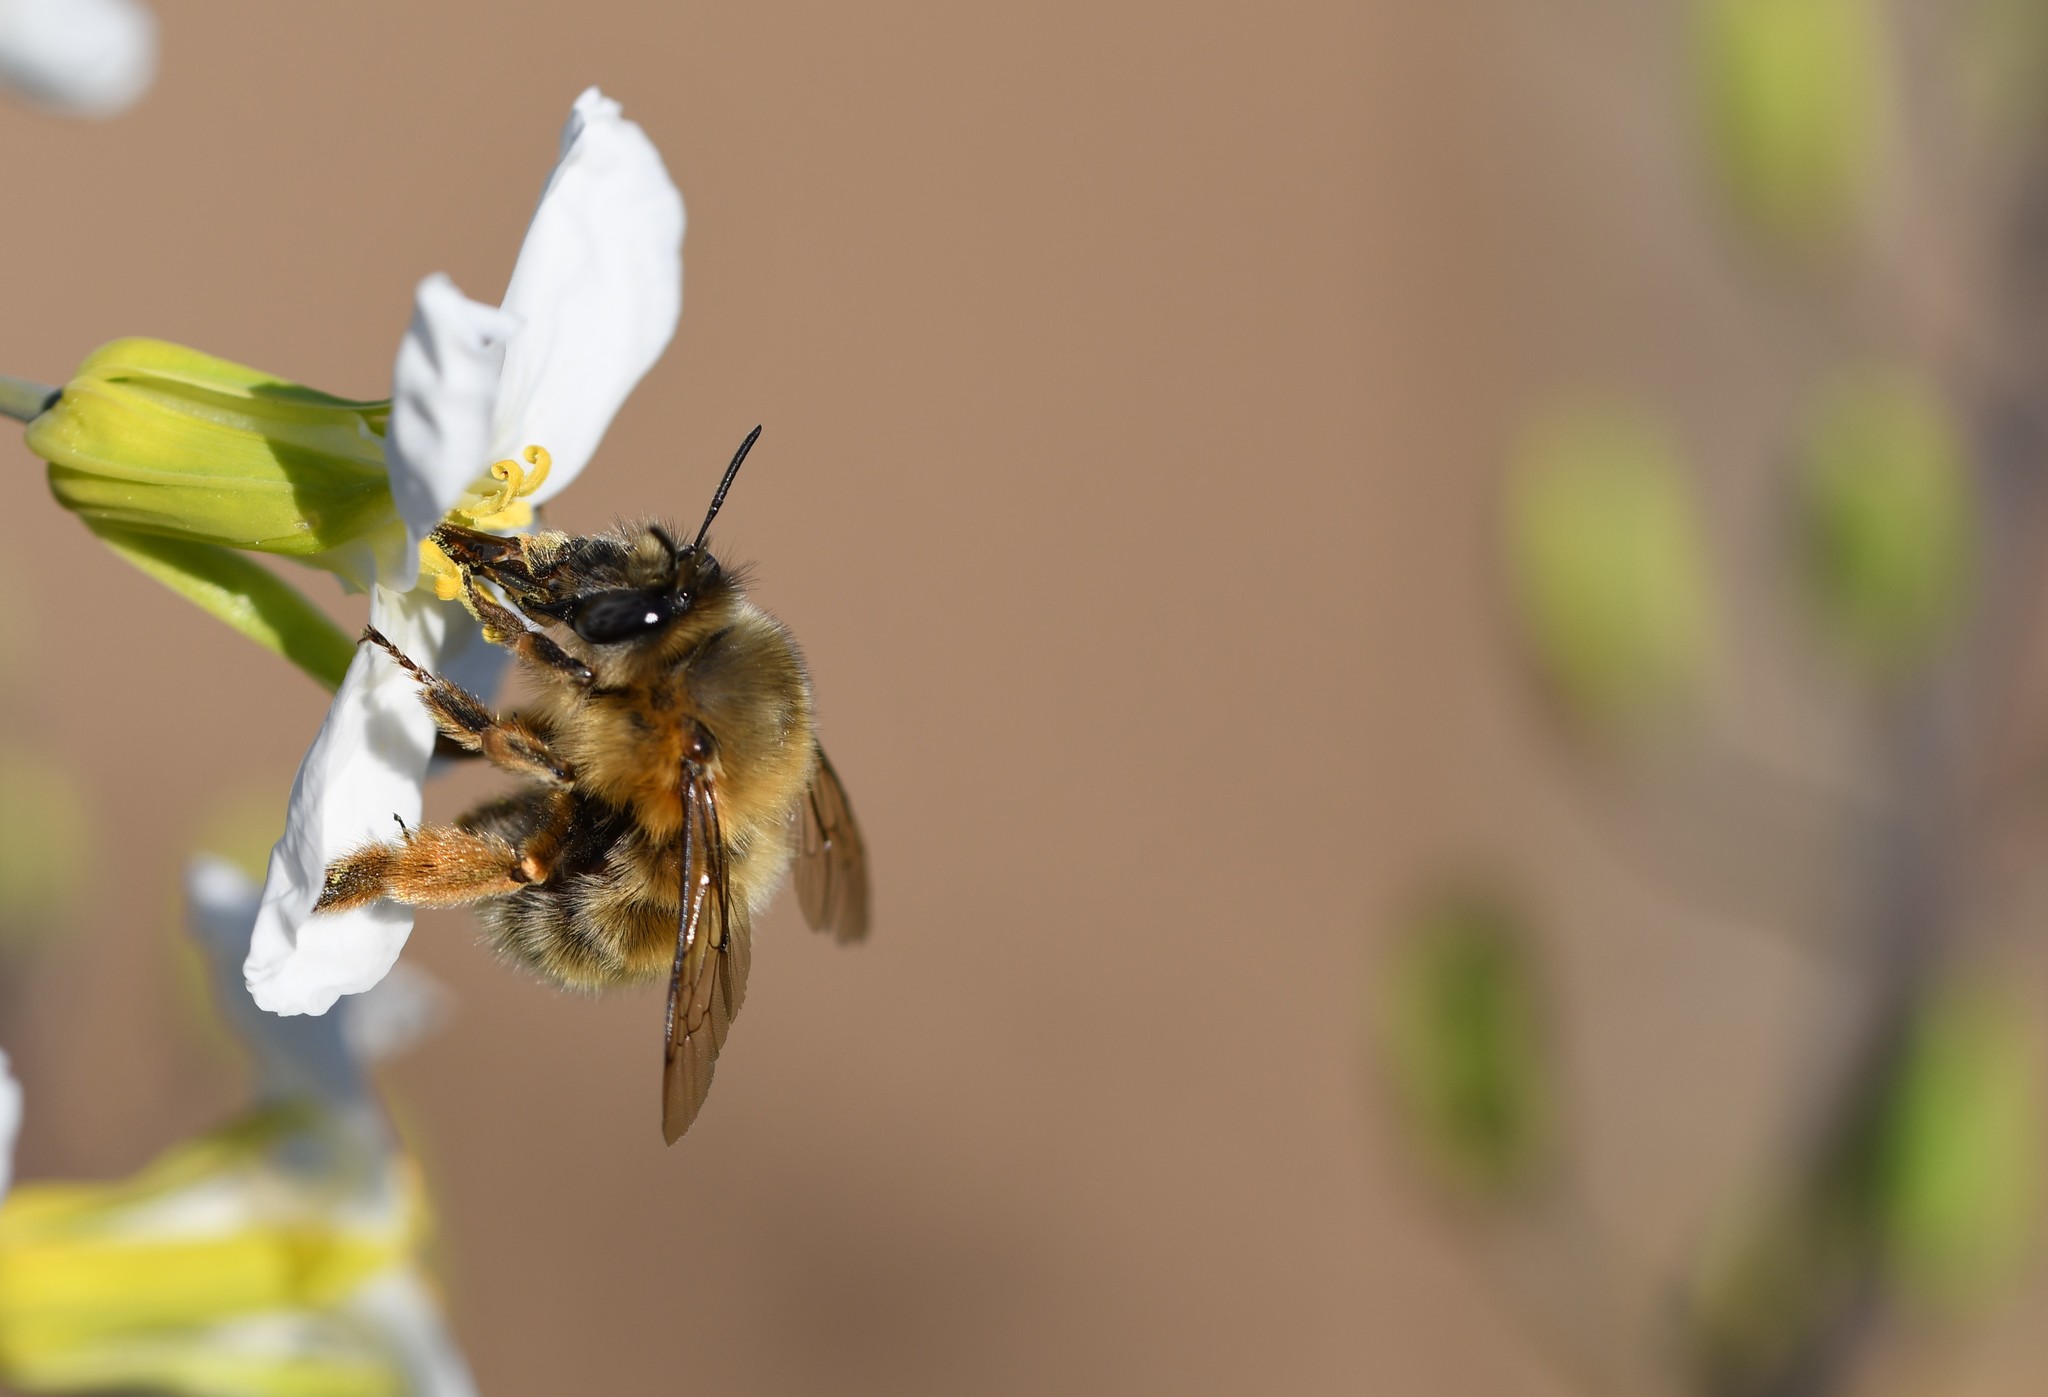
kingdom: Animalia
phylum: Arthropoda
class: Insecta
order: Hymenoptera
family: Apidae
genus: Anthophora
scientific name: Anthophora plumipes
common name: Hairy-footed flower bee
